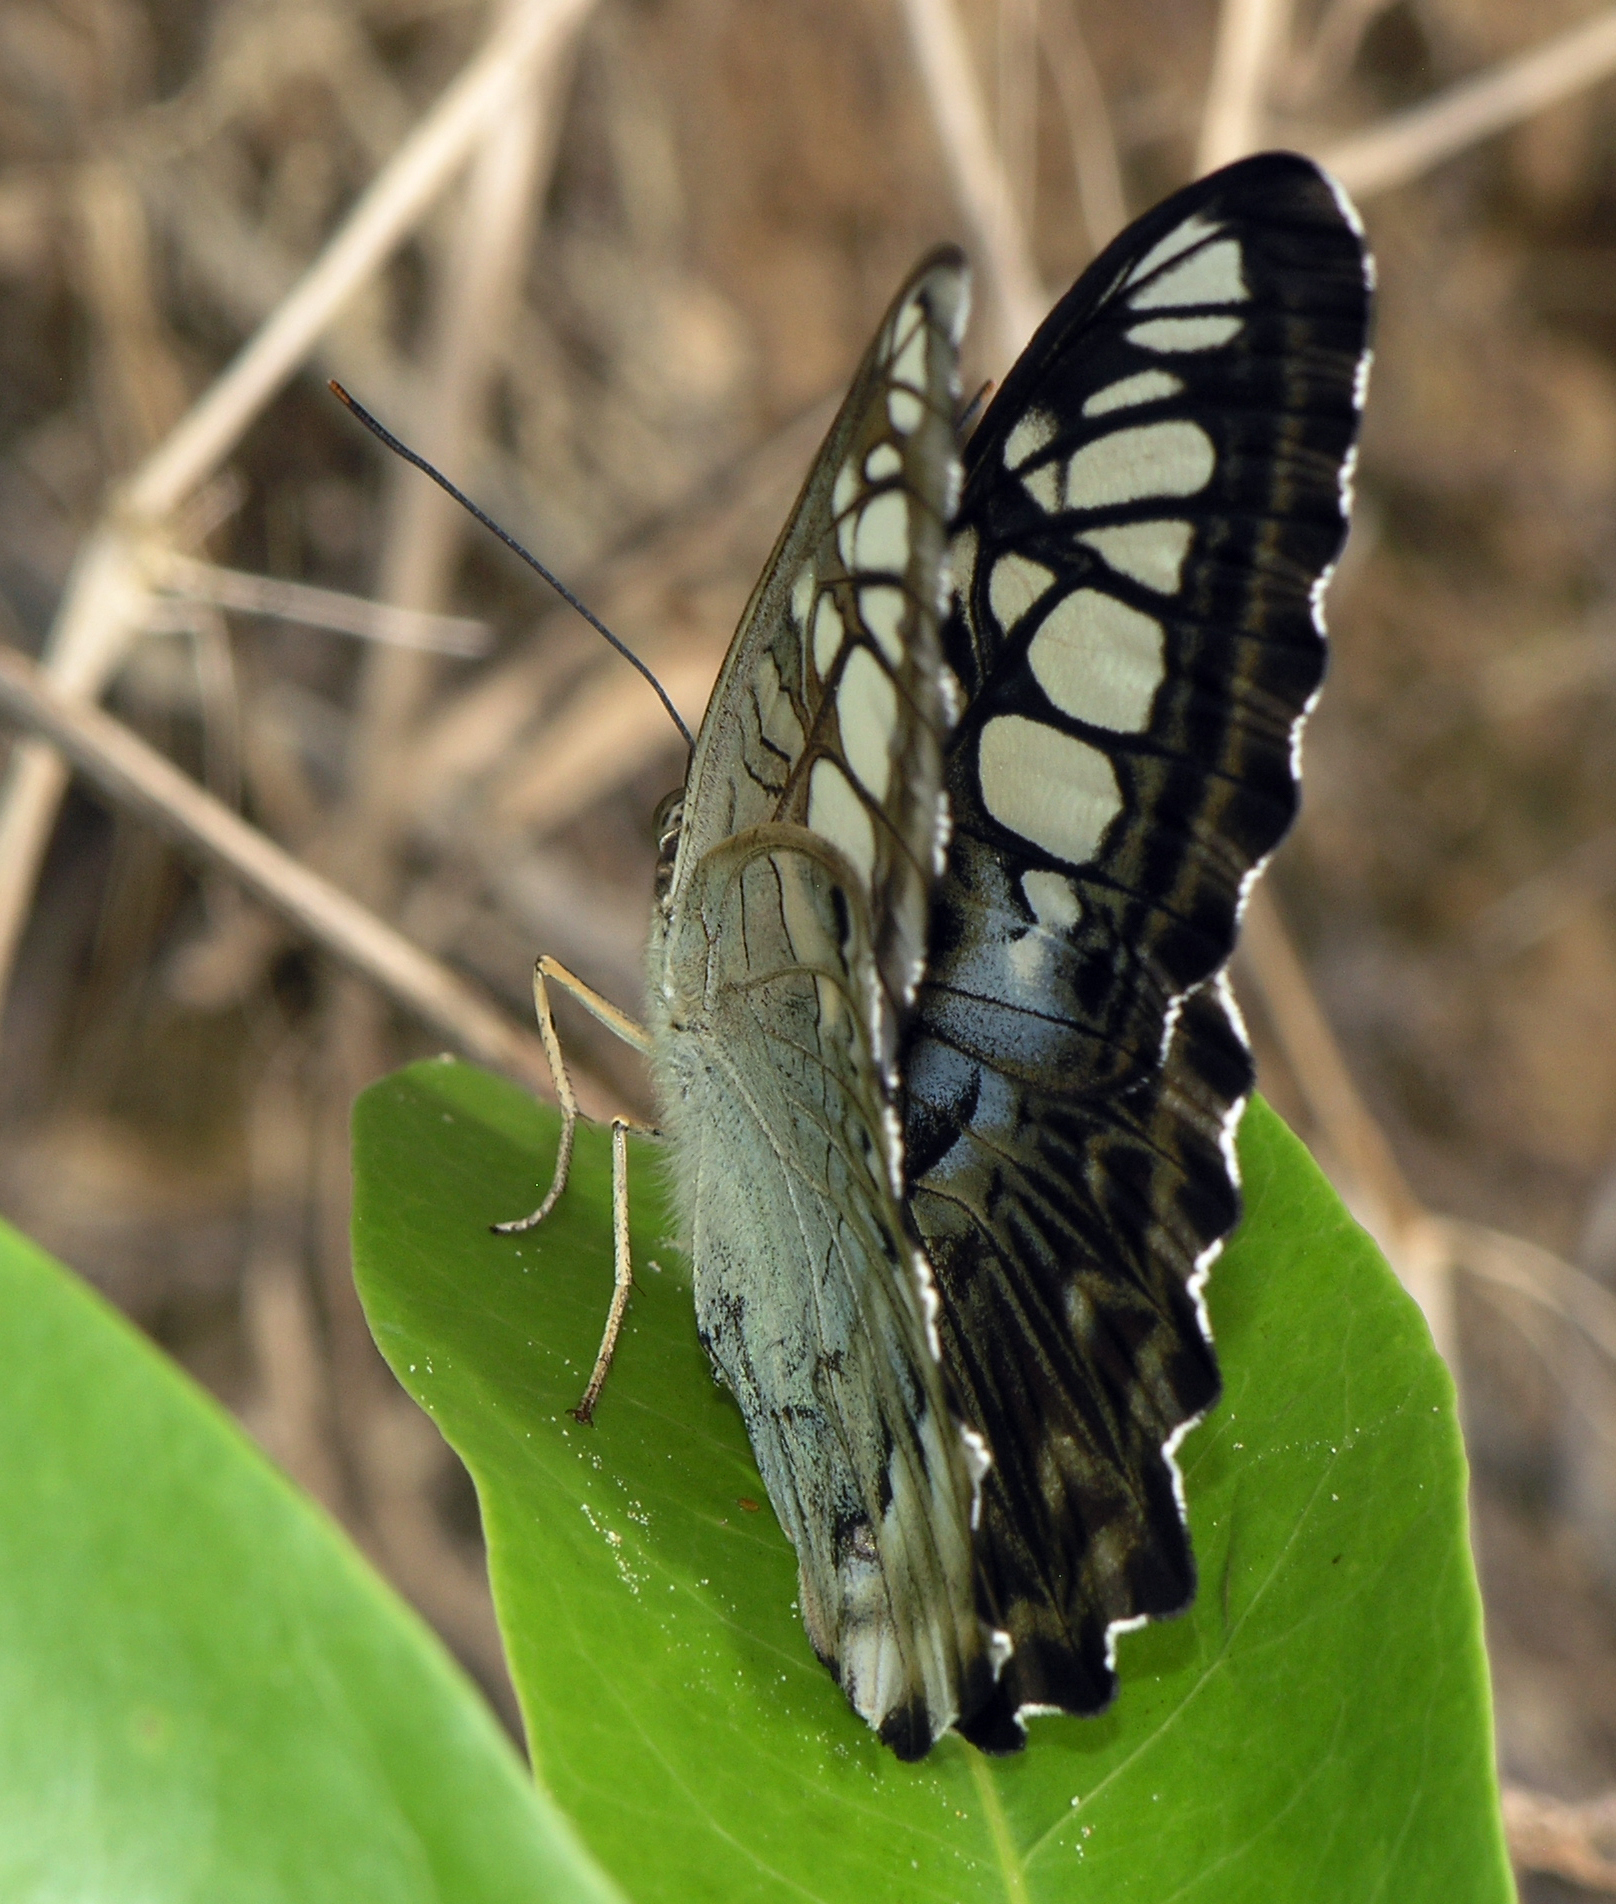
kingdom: Animalia
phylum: Arthropoda
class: Insecta
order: Lepidoptera
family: Nymphalidae
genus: Kallima
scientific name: Kallima sylvia
